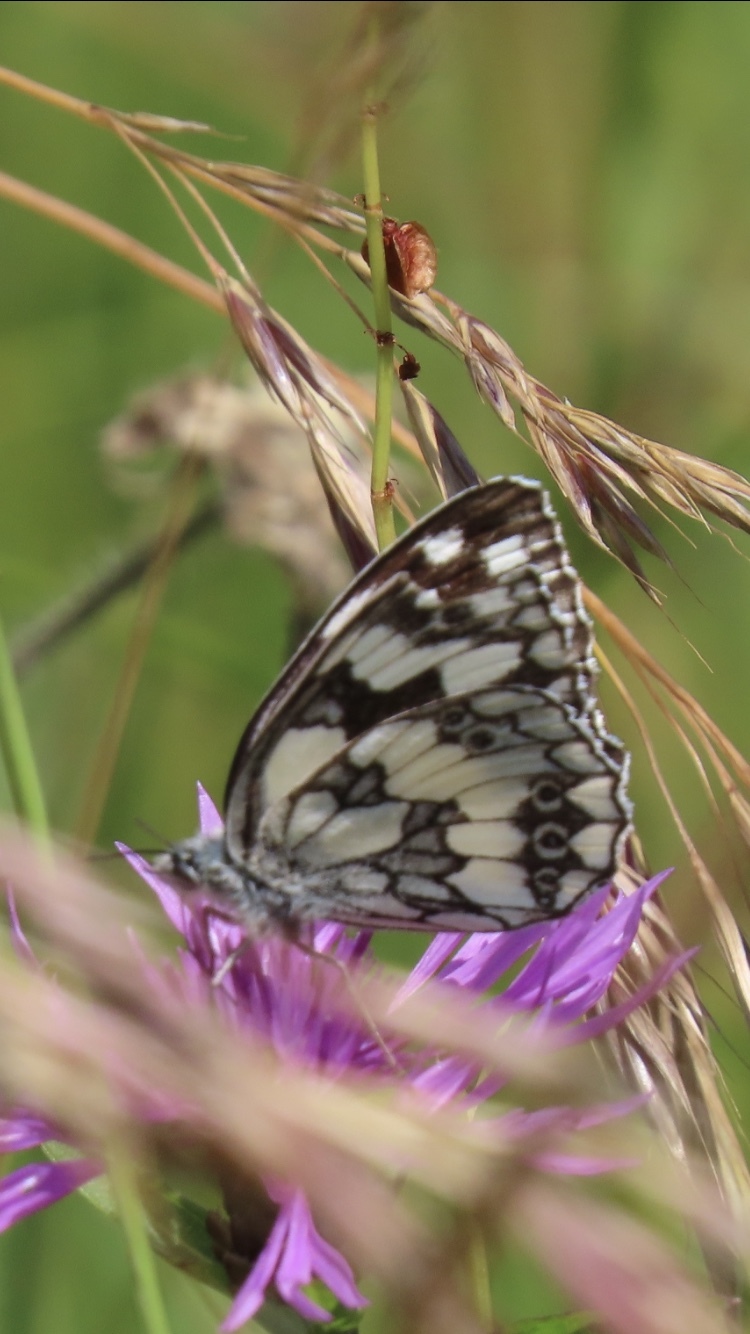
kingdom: Animalia
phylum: Arthropoda
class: Insecta
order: Lepidoptera
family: Nymphalidae
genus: Melanargia
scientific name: Melanargia galathea
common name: Marbled white
